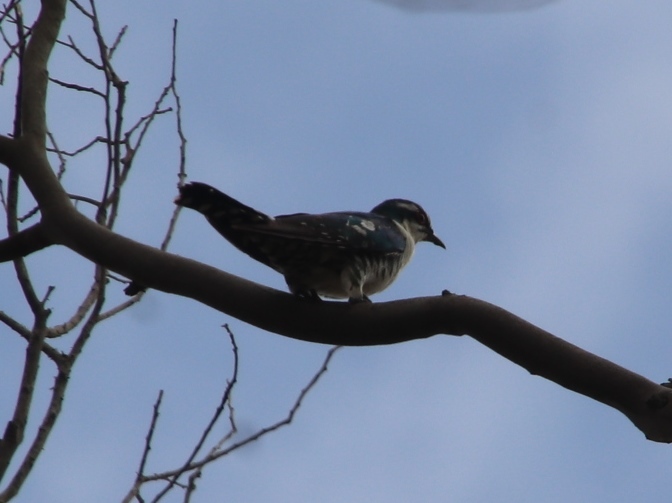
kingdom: Animalia
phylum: Chordata
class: Aves
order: Cuculiformes
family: Cuculidae
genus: Chrysococcyx
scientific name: Chrysococcyx caprius
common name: Diederik cuckoo
